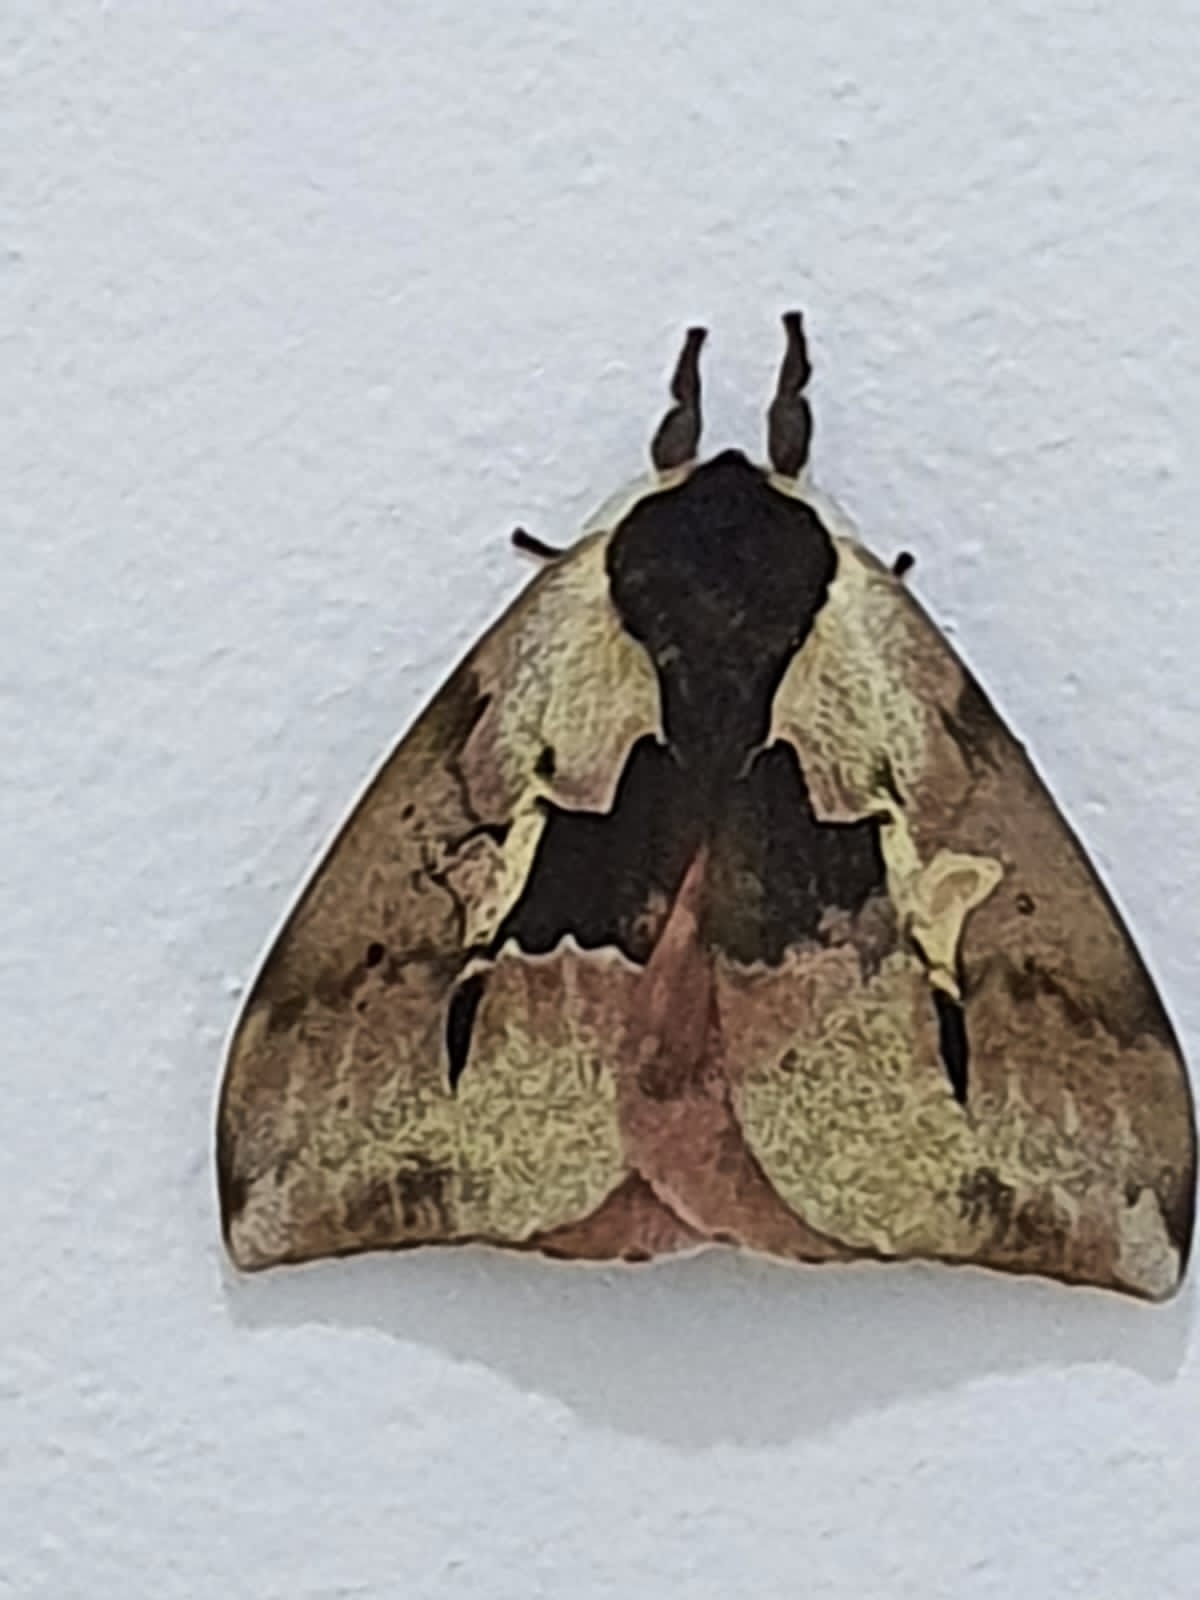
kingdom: Animalia
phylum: Arthropoda
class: Insecta
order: Lepidoptera
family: Saturniidae
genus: Dirphiopsis
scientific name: Dirphiopsis multicolor
